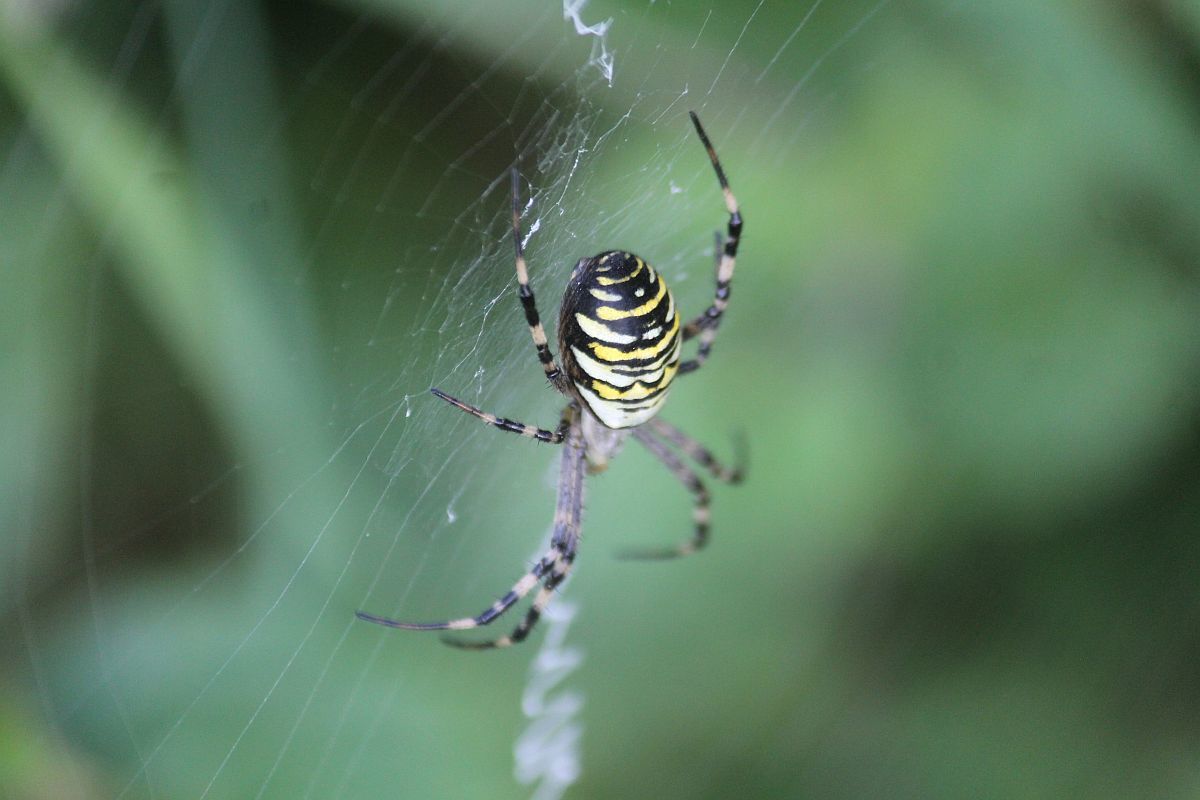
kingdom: Animalia
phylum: Arthropoda
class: Arachnida
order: Araneae
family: Araneidae
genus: Argiope
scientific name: Argiope bruennichi
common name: Wasp spider
